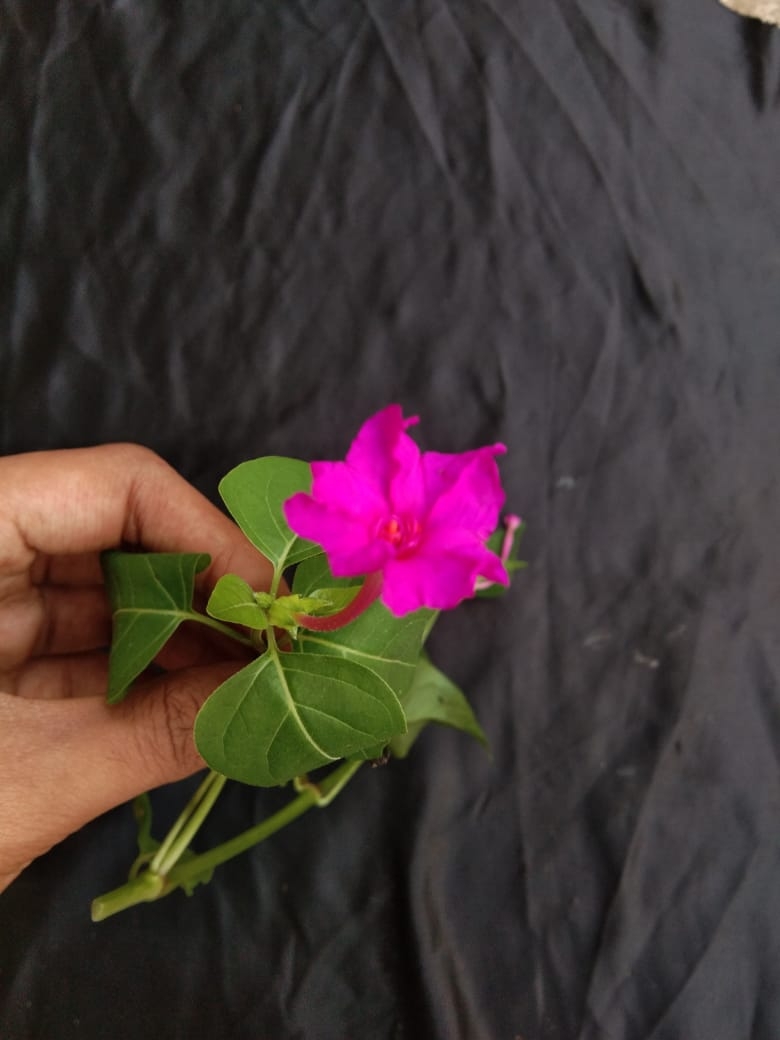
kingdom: Plantae
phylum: Tracheophyta
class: Magnoliopsida
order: Caryophyllales
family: Nyctaginaceae
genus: Mirabilis
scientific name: Mirabilis jalapa
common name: Marvel-of-peru
